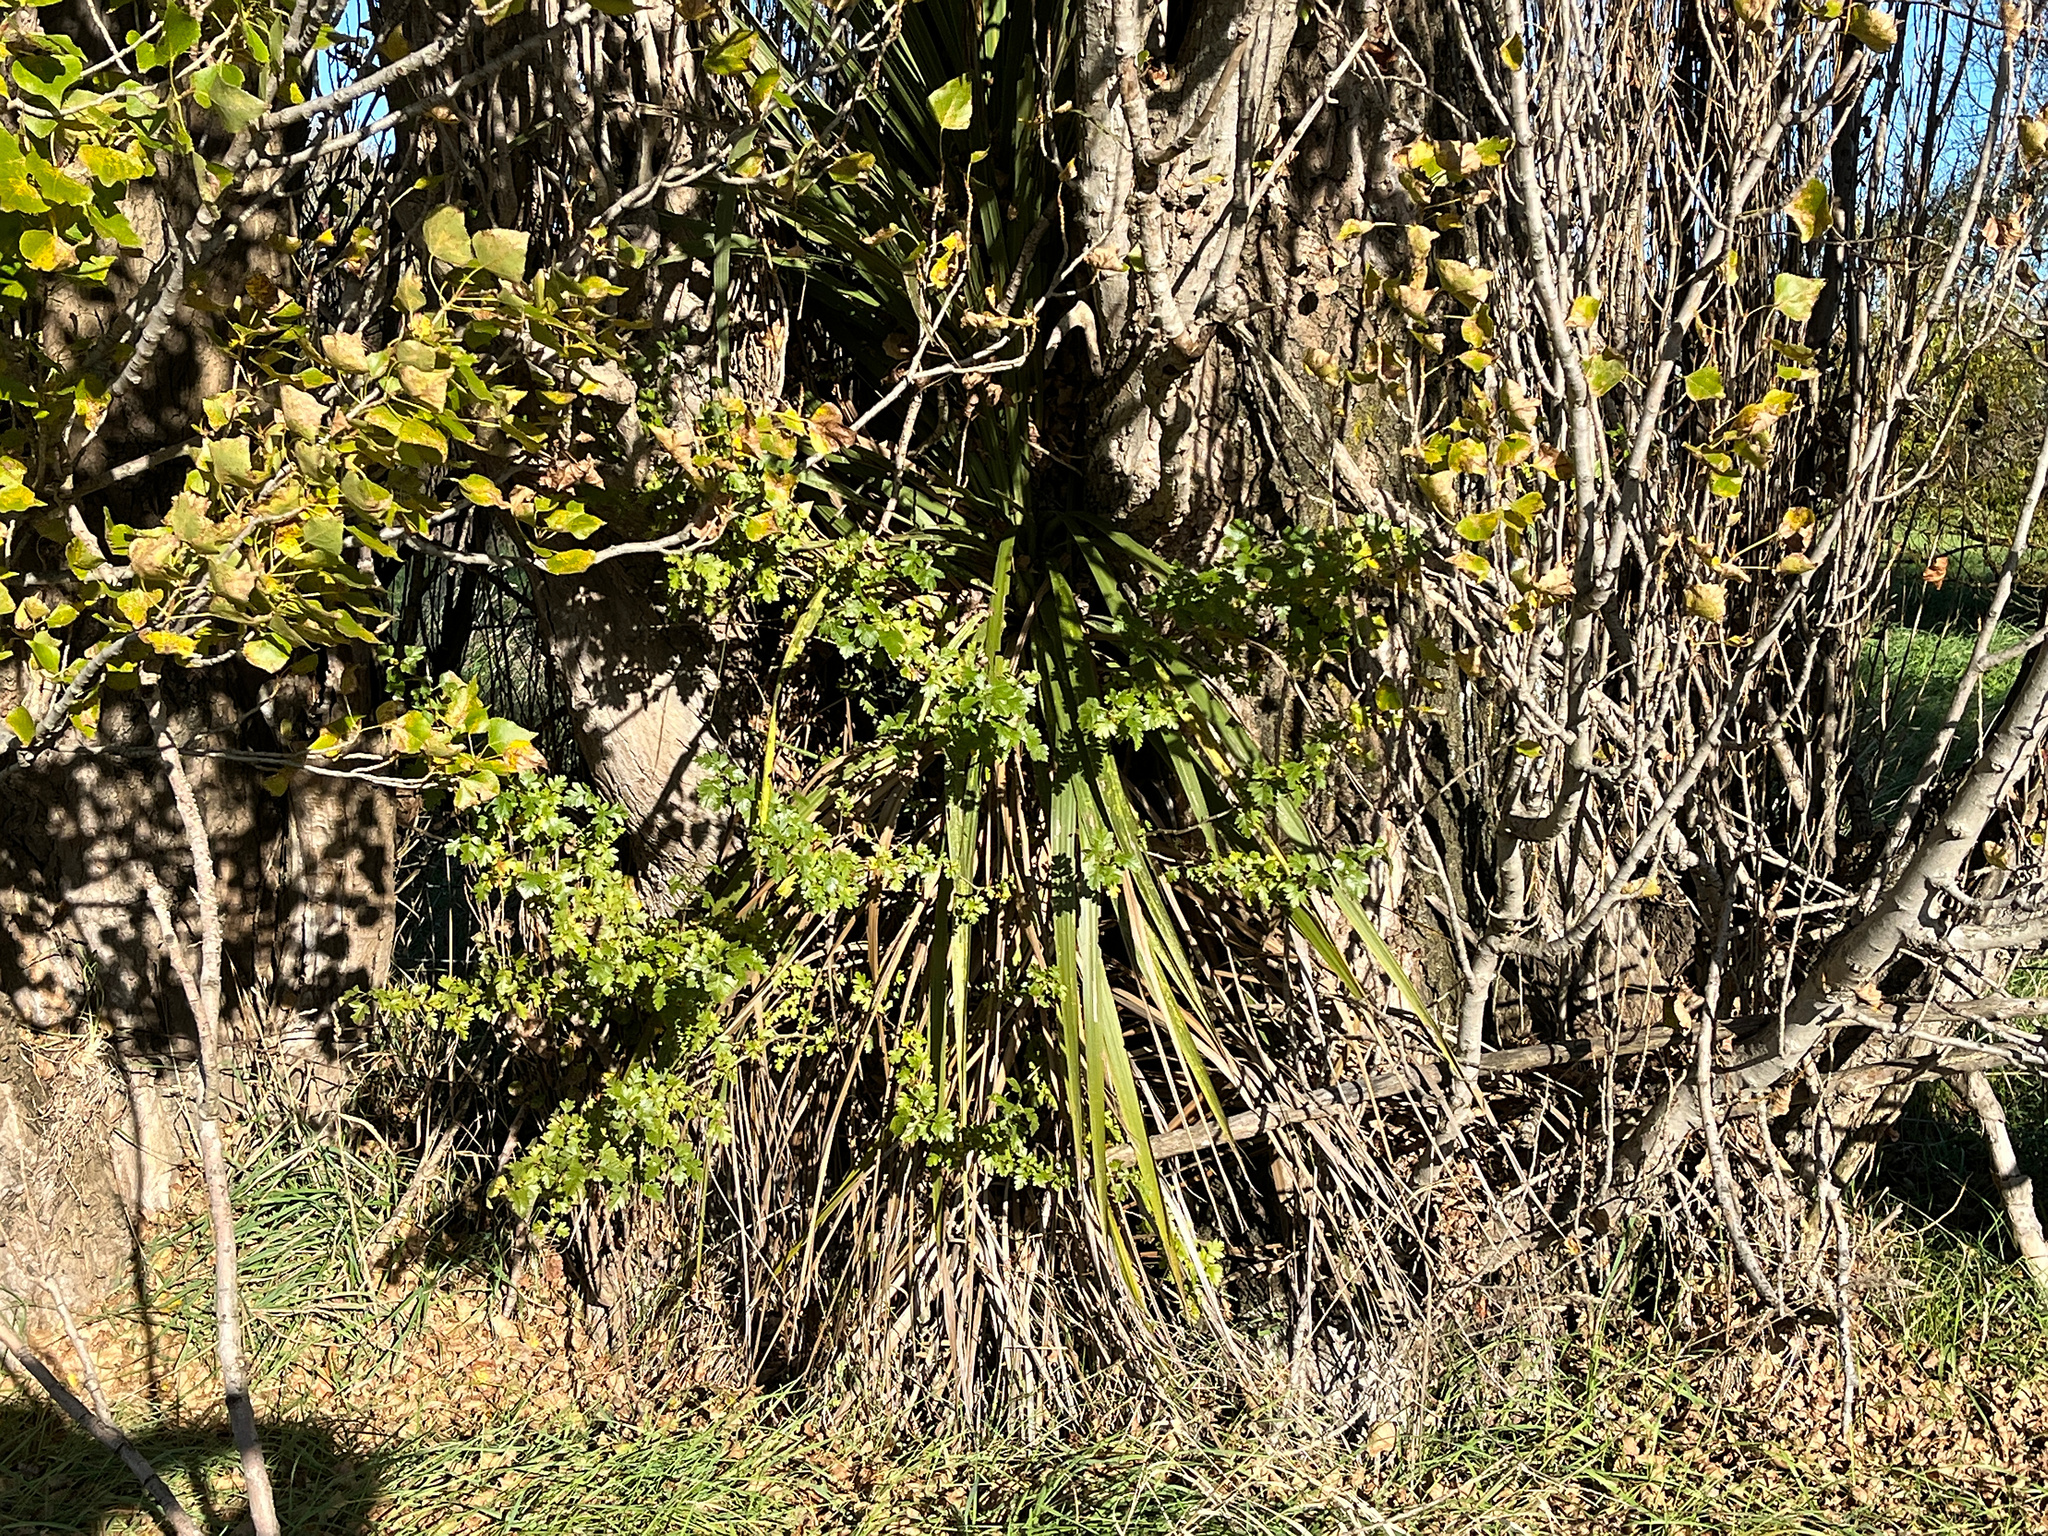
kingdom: Plantae
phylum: Tracheophyta
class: Magnoliopsida
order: Rosales
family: Rosaceae
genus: Crataegus
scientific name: Crataegus monogyna
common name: Hawthorn
